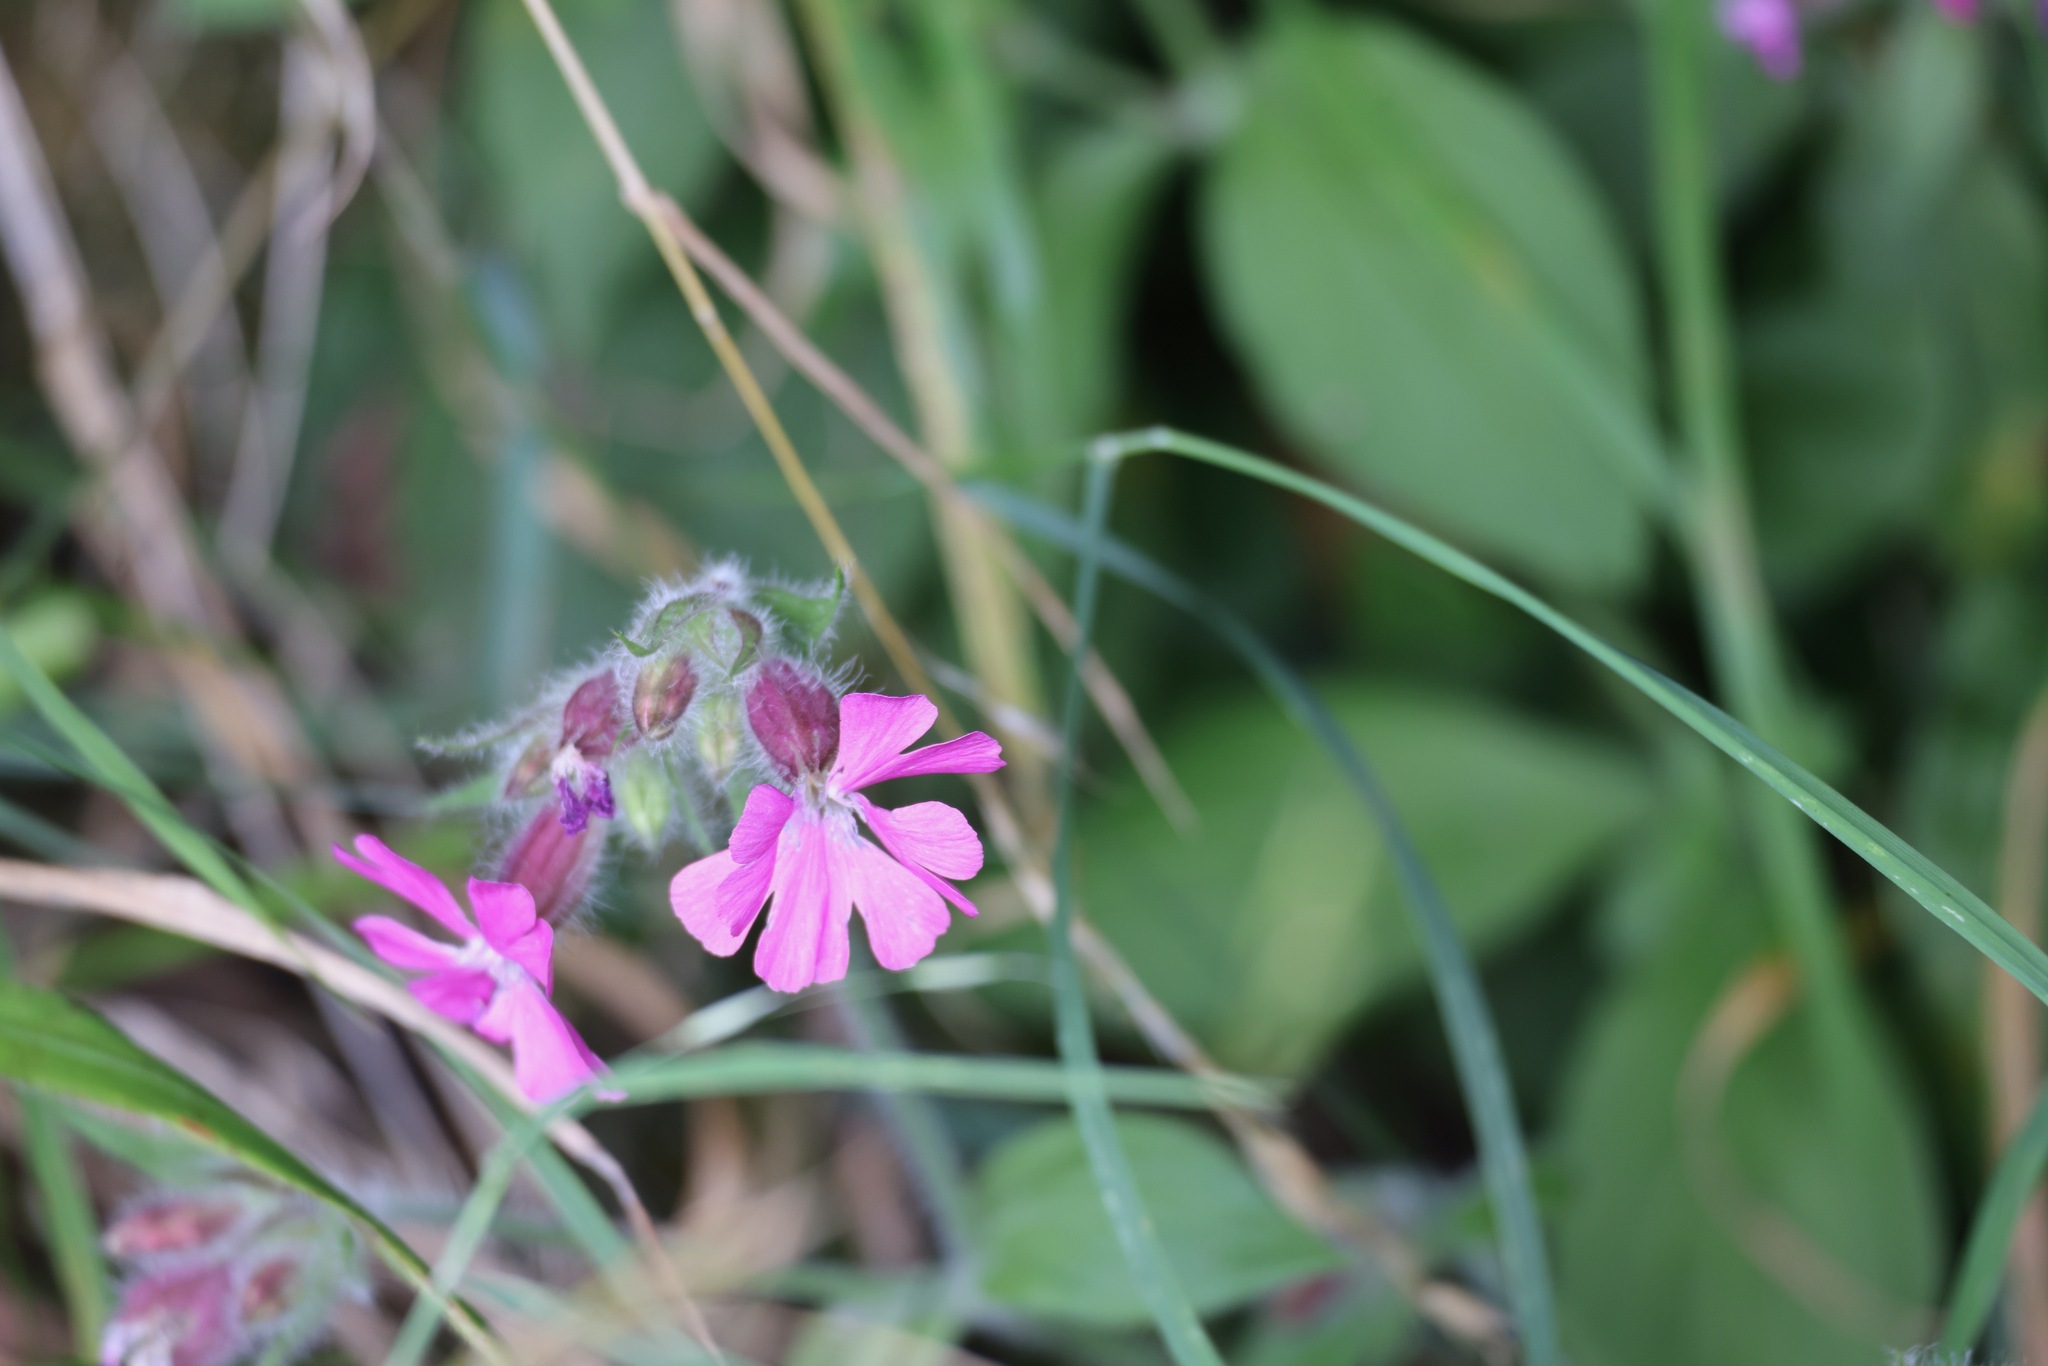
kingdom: Plantae
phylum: Tracheophyta
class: Magnoliopsida
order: Caryophyllales
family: Caryophyllaceae
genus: Silene
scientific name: Silene dioica
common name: Red campion
